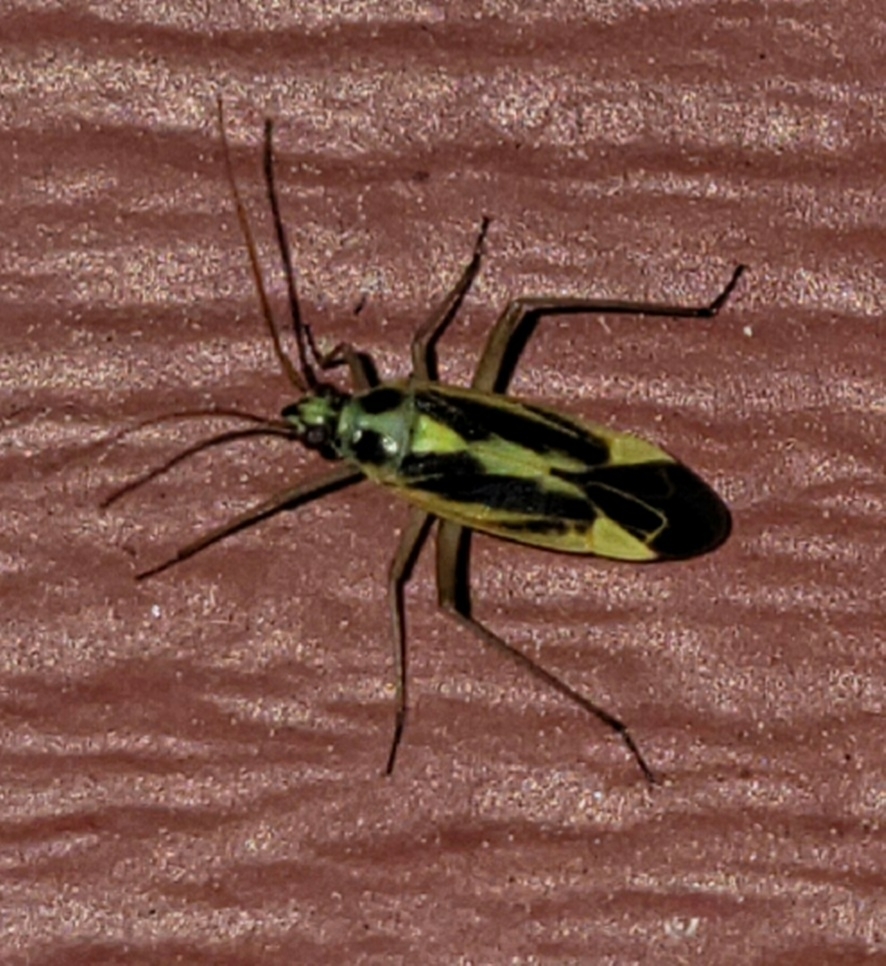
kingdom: Animalia
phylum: Arthropoda
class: Insecta
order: Hemiptera
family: Miridae
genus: Stenotus
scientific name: Stenotus binotatus
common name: Plant bug
